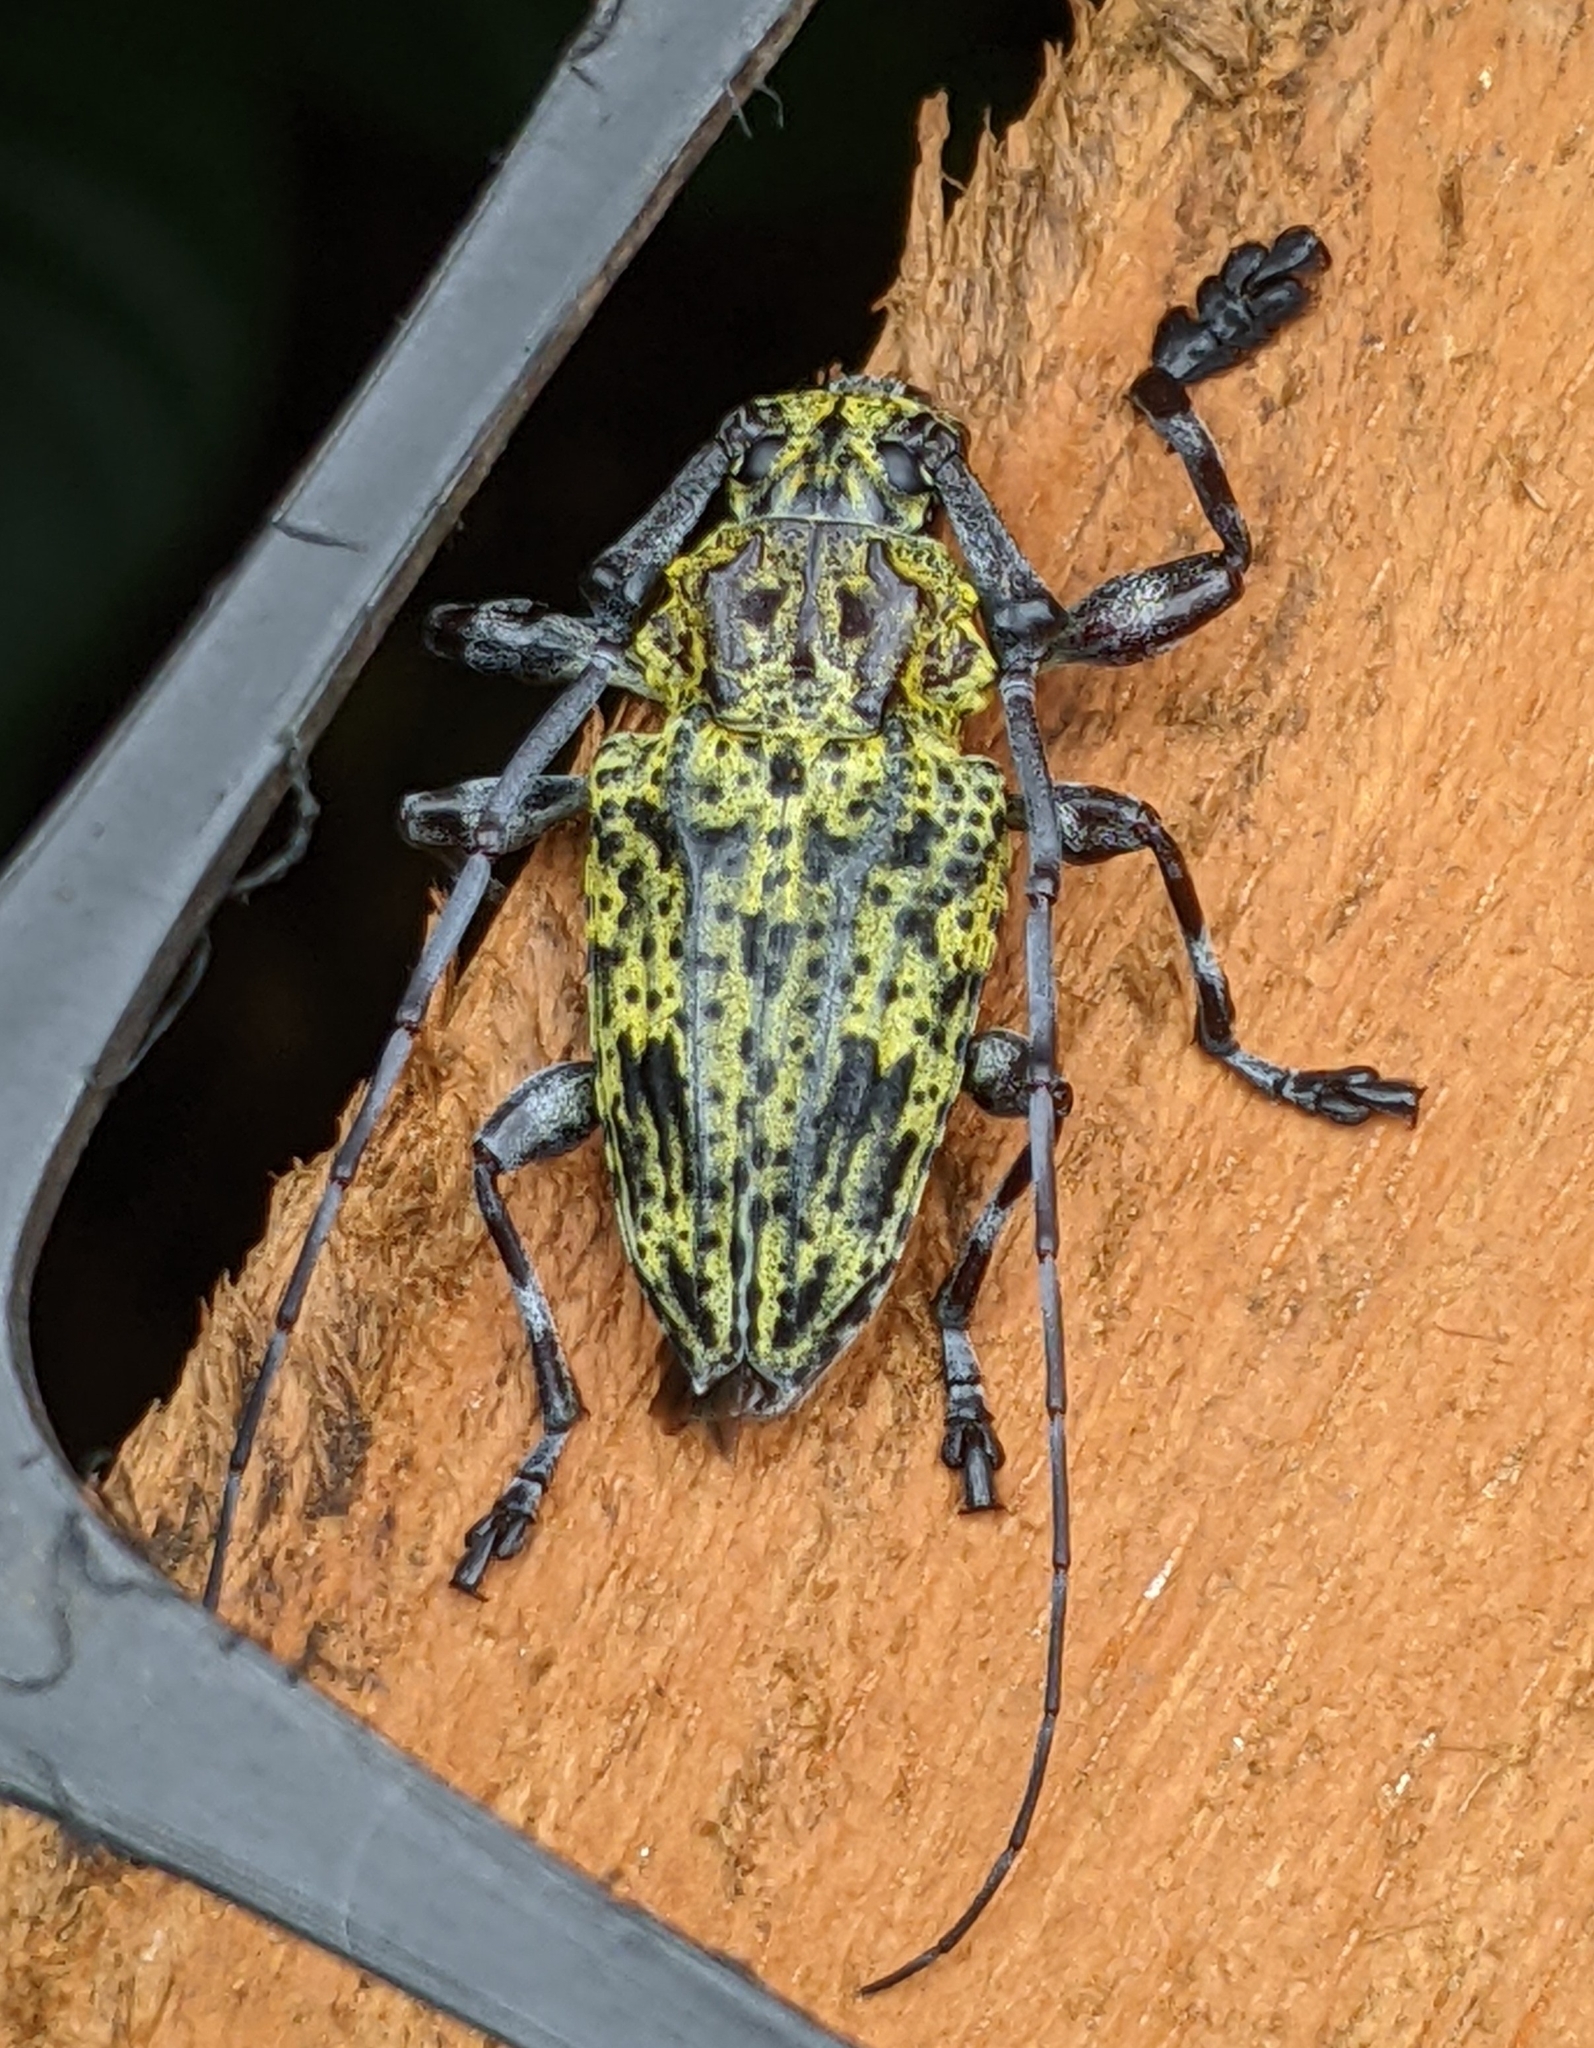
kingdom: Animalia
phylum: Arthropoda
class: Insecta
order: Coleoptera
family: Cerambycidae
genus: Steirastoma
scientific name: Steirastoma breve
